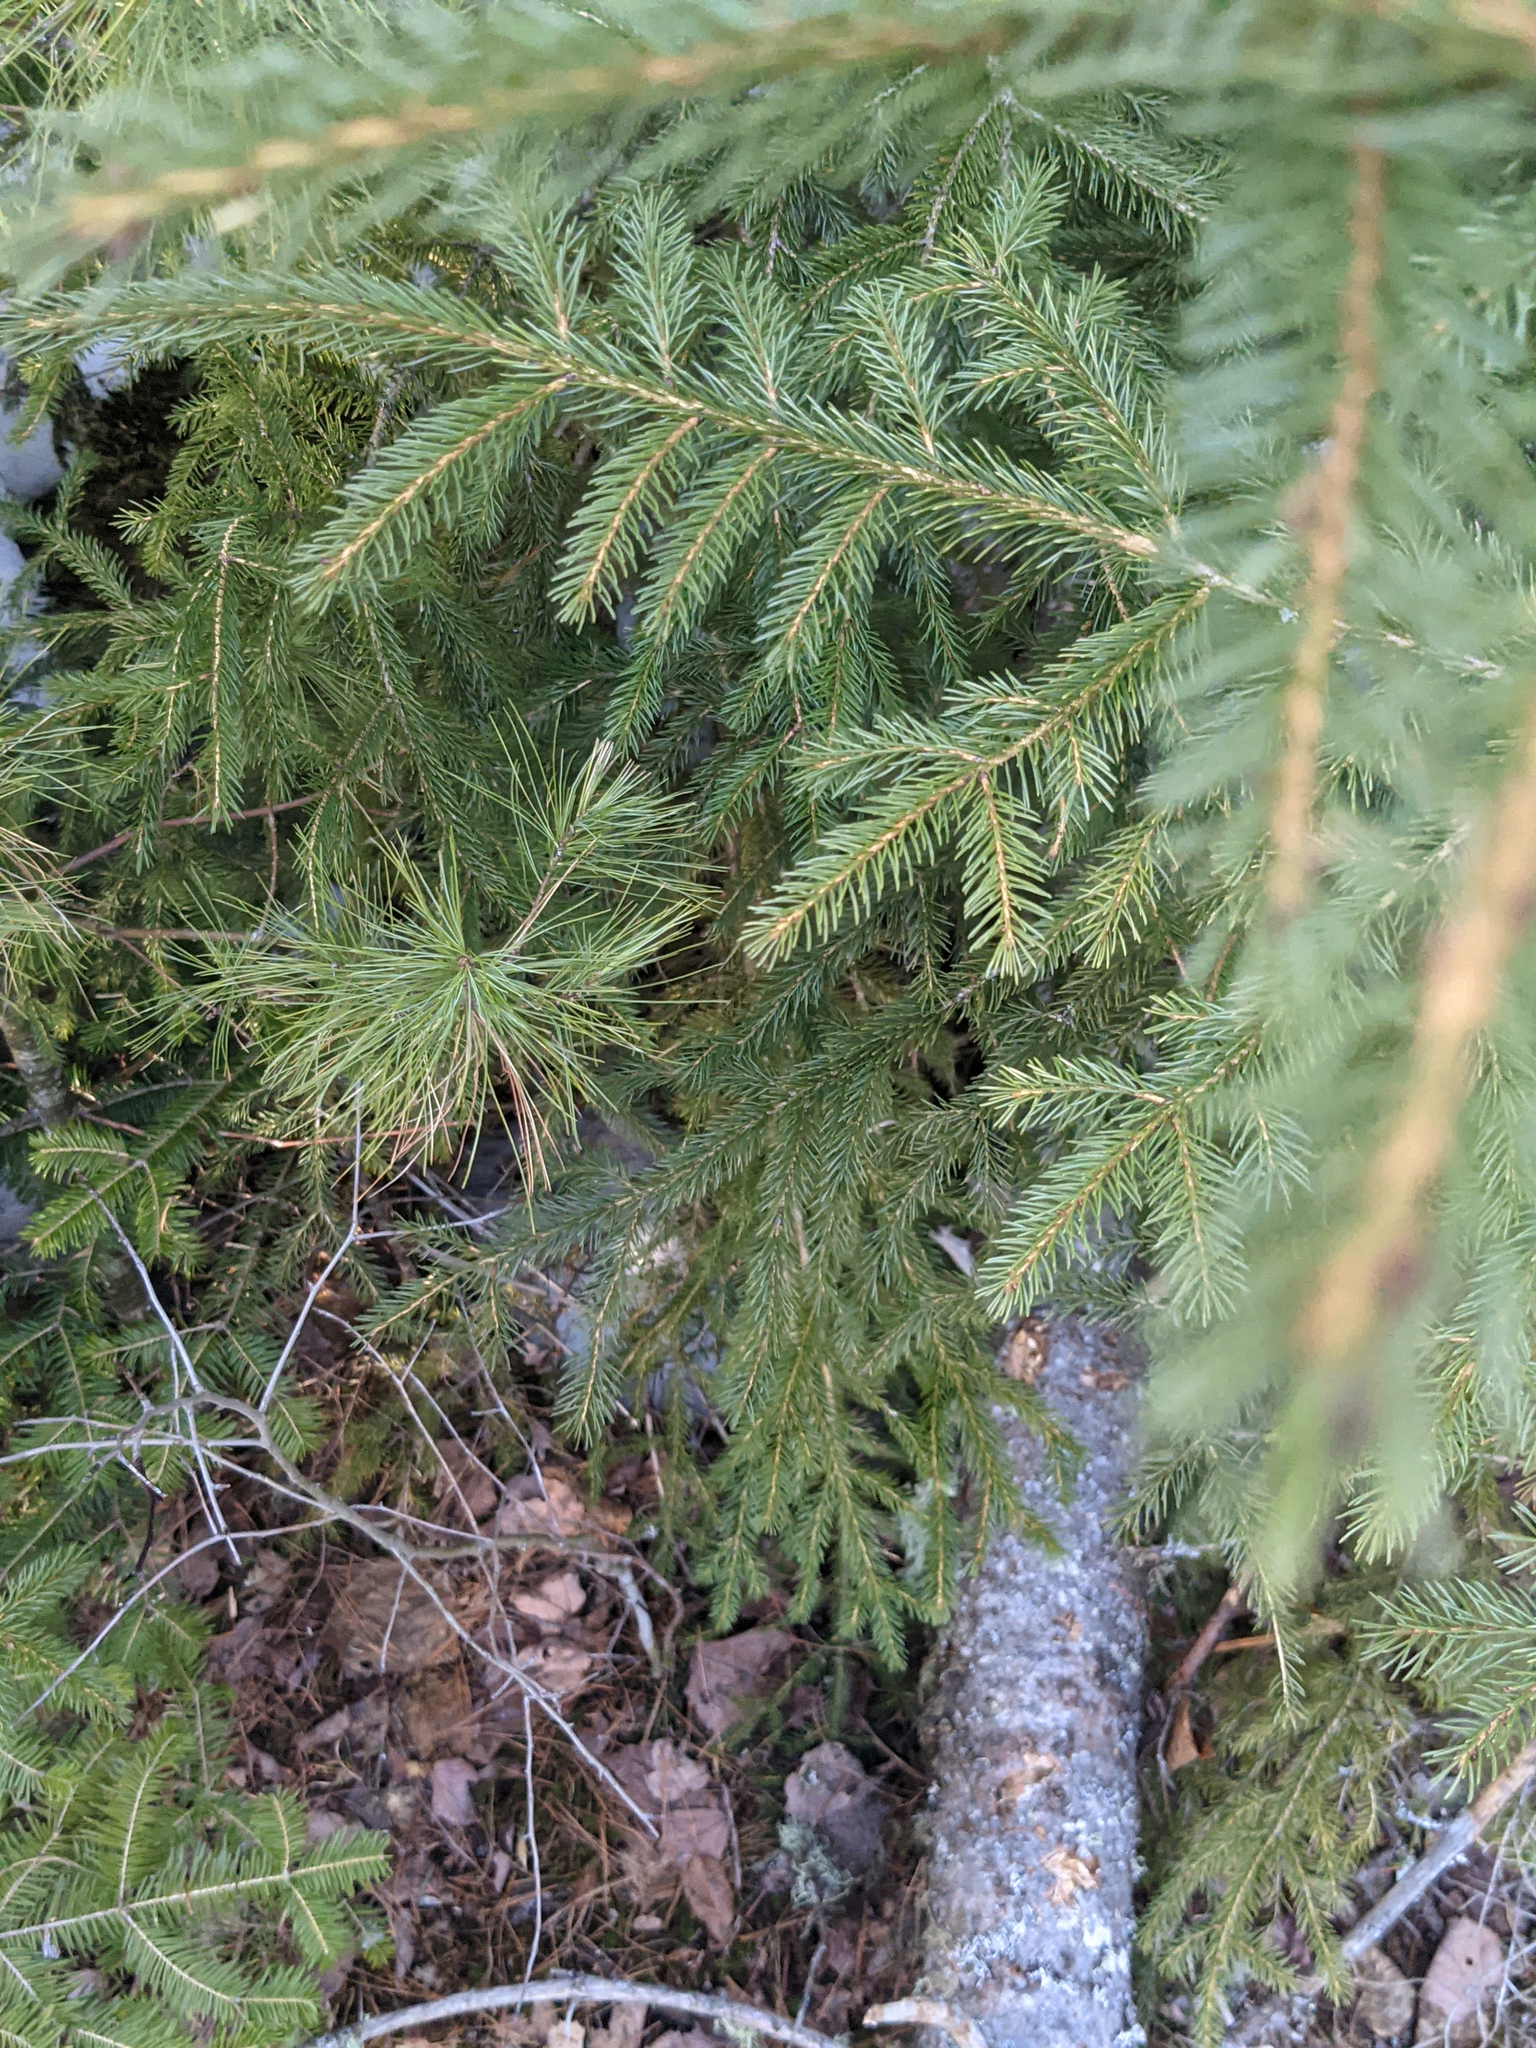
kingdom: Plantae
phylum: Tracheophyta
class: Pinopsida
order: Pinales
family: Pinaceae
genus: Picea
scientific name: Picea rubens
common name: Red spruce
